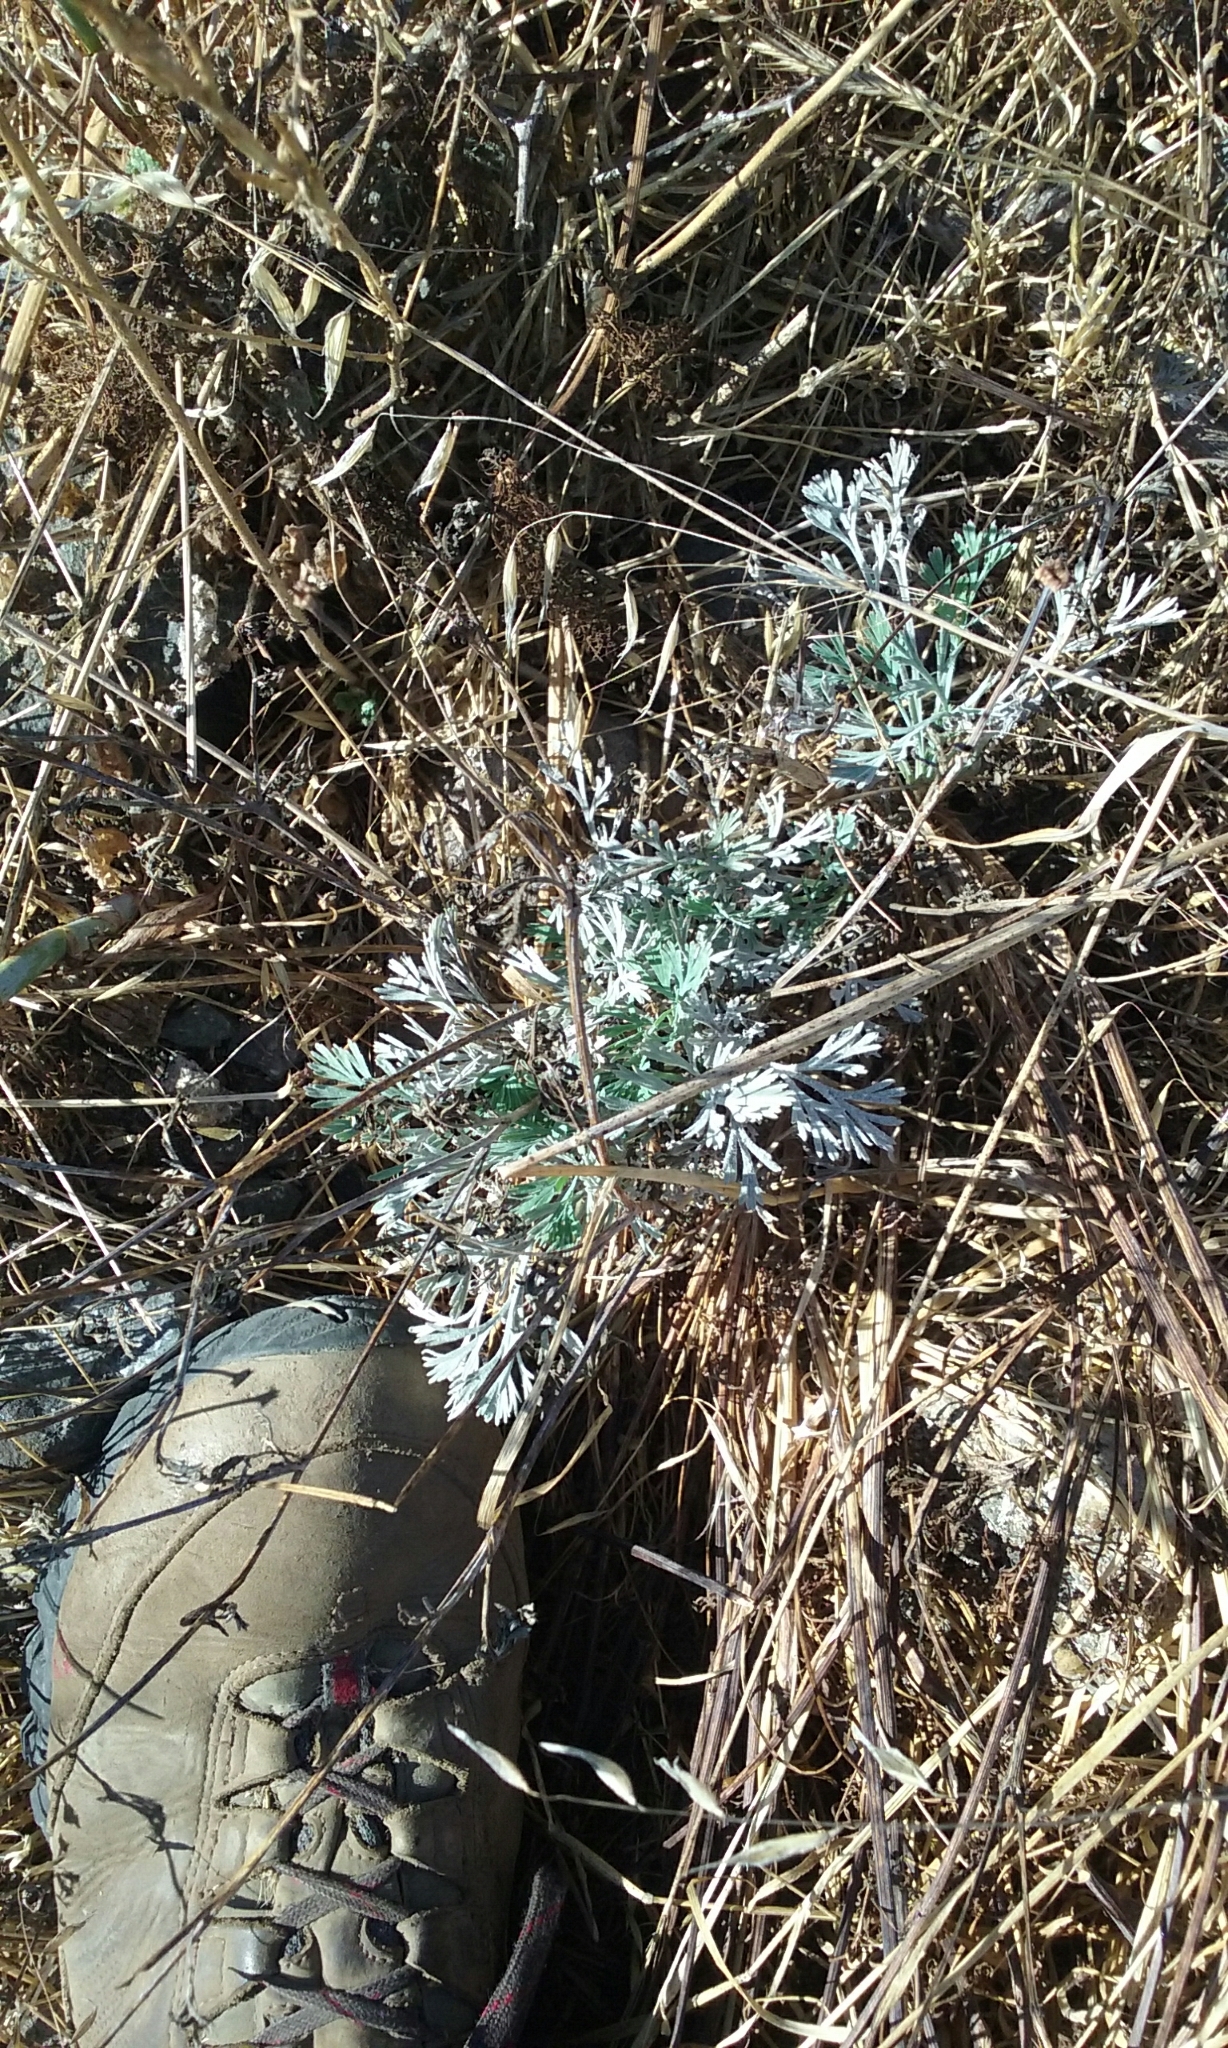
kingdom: Plantae
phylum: Tracheophyta
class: Magnoliopsida
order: Ranunculales
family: Papaveraceae
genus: Eschscholzia
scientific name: Eschscholzia californica
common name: California poppy
